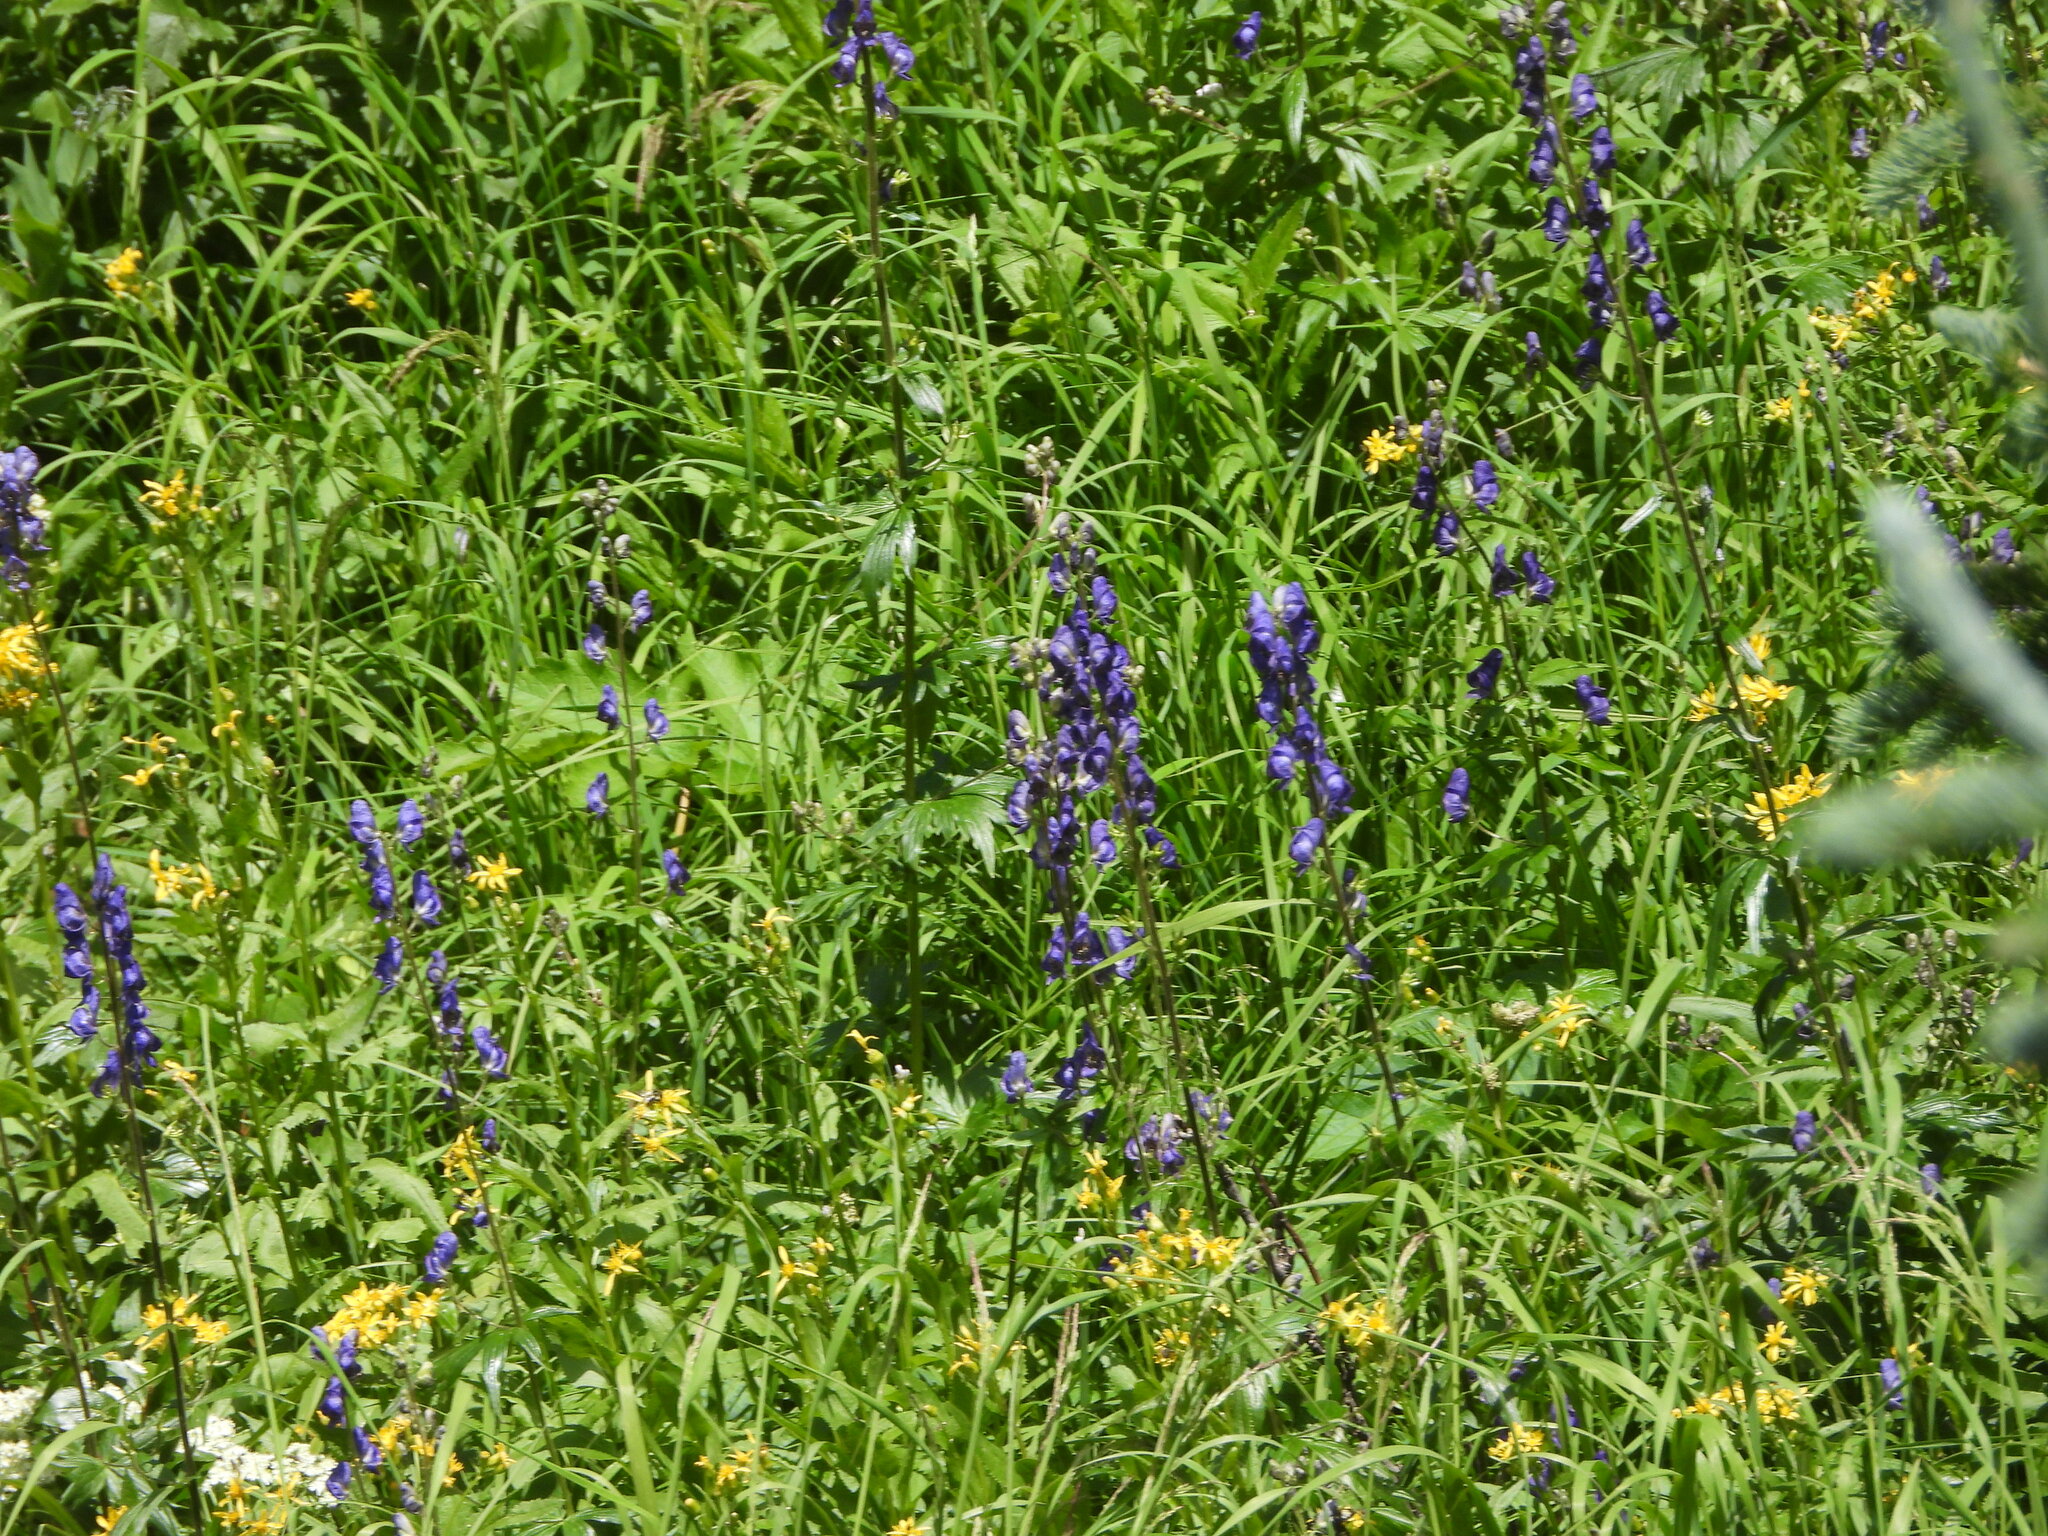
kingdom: Plantae
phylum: Tracheophyta
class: Magnoliopsida
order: Ranunculales
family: Ranunculaceae
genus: Aconitum
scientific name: Aconitum columbianum
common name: Columbia aconite
